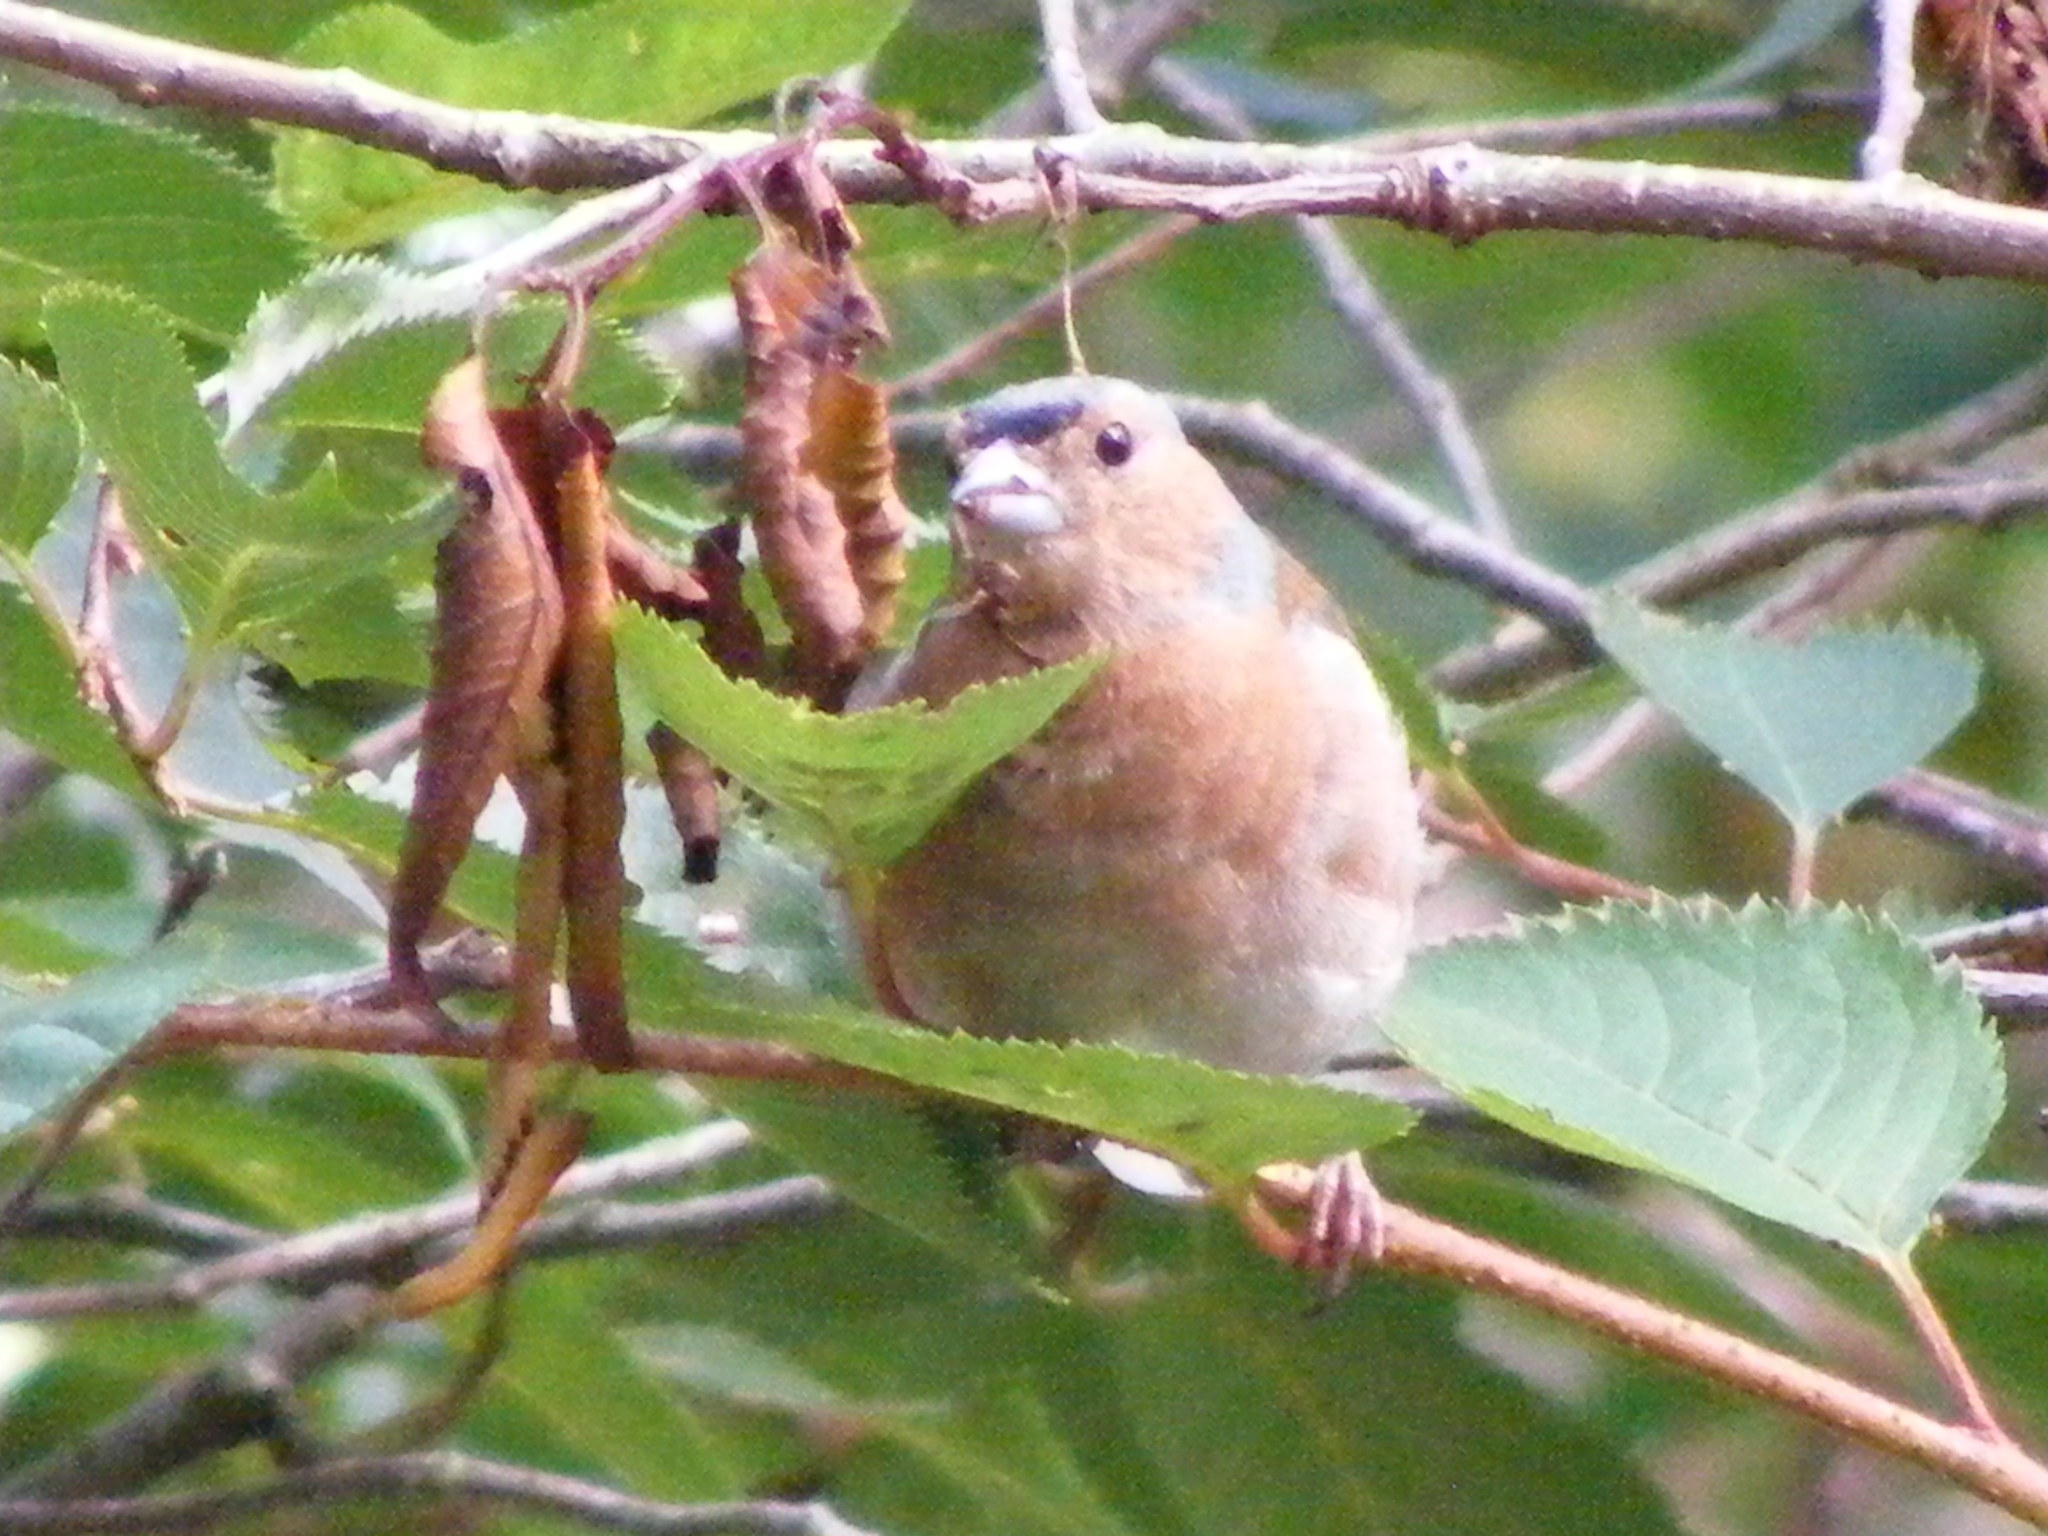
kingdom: Animalia
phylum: Chordata
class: Aves
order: Passeriformes
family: Fringillidae
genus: Fringilla
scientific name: Fringilla coelebs
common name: Common chaffinch
